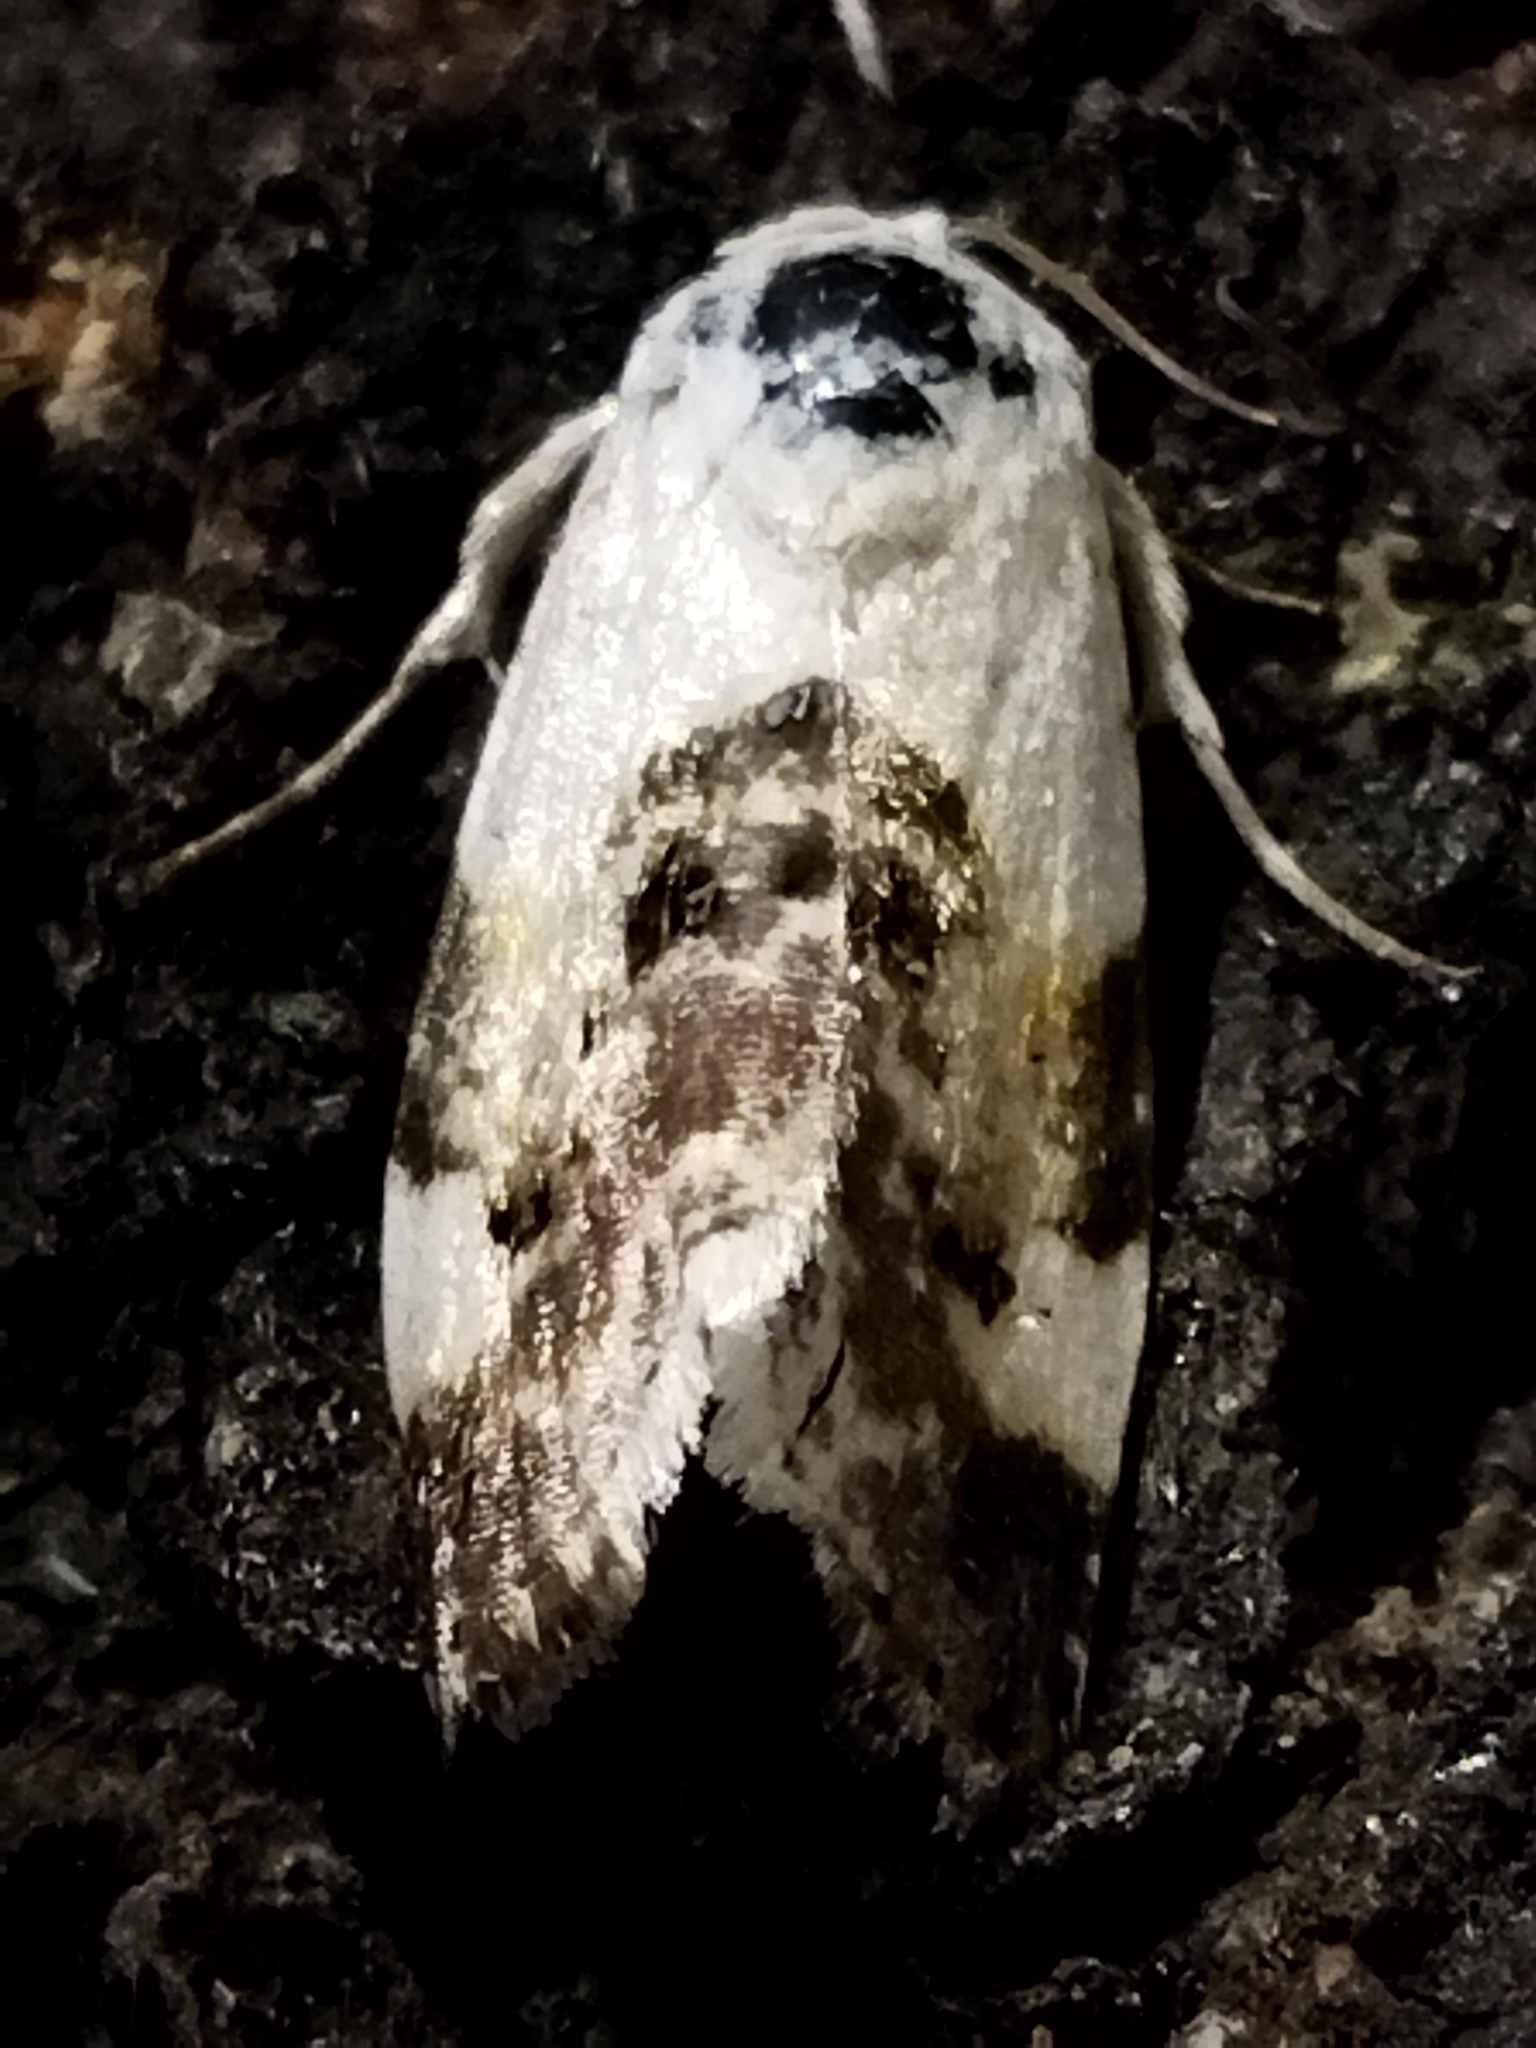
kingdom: Animalia
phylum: Arthropoda
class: Insecta
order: Lepidoptera
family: Noctuidae
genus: Acontia
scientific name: Acontia lucida
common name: Pale shoulder
